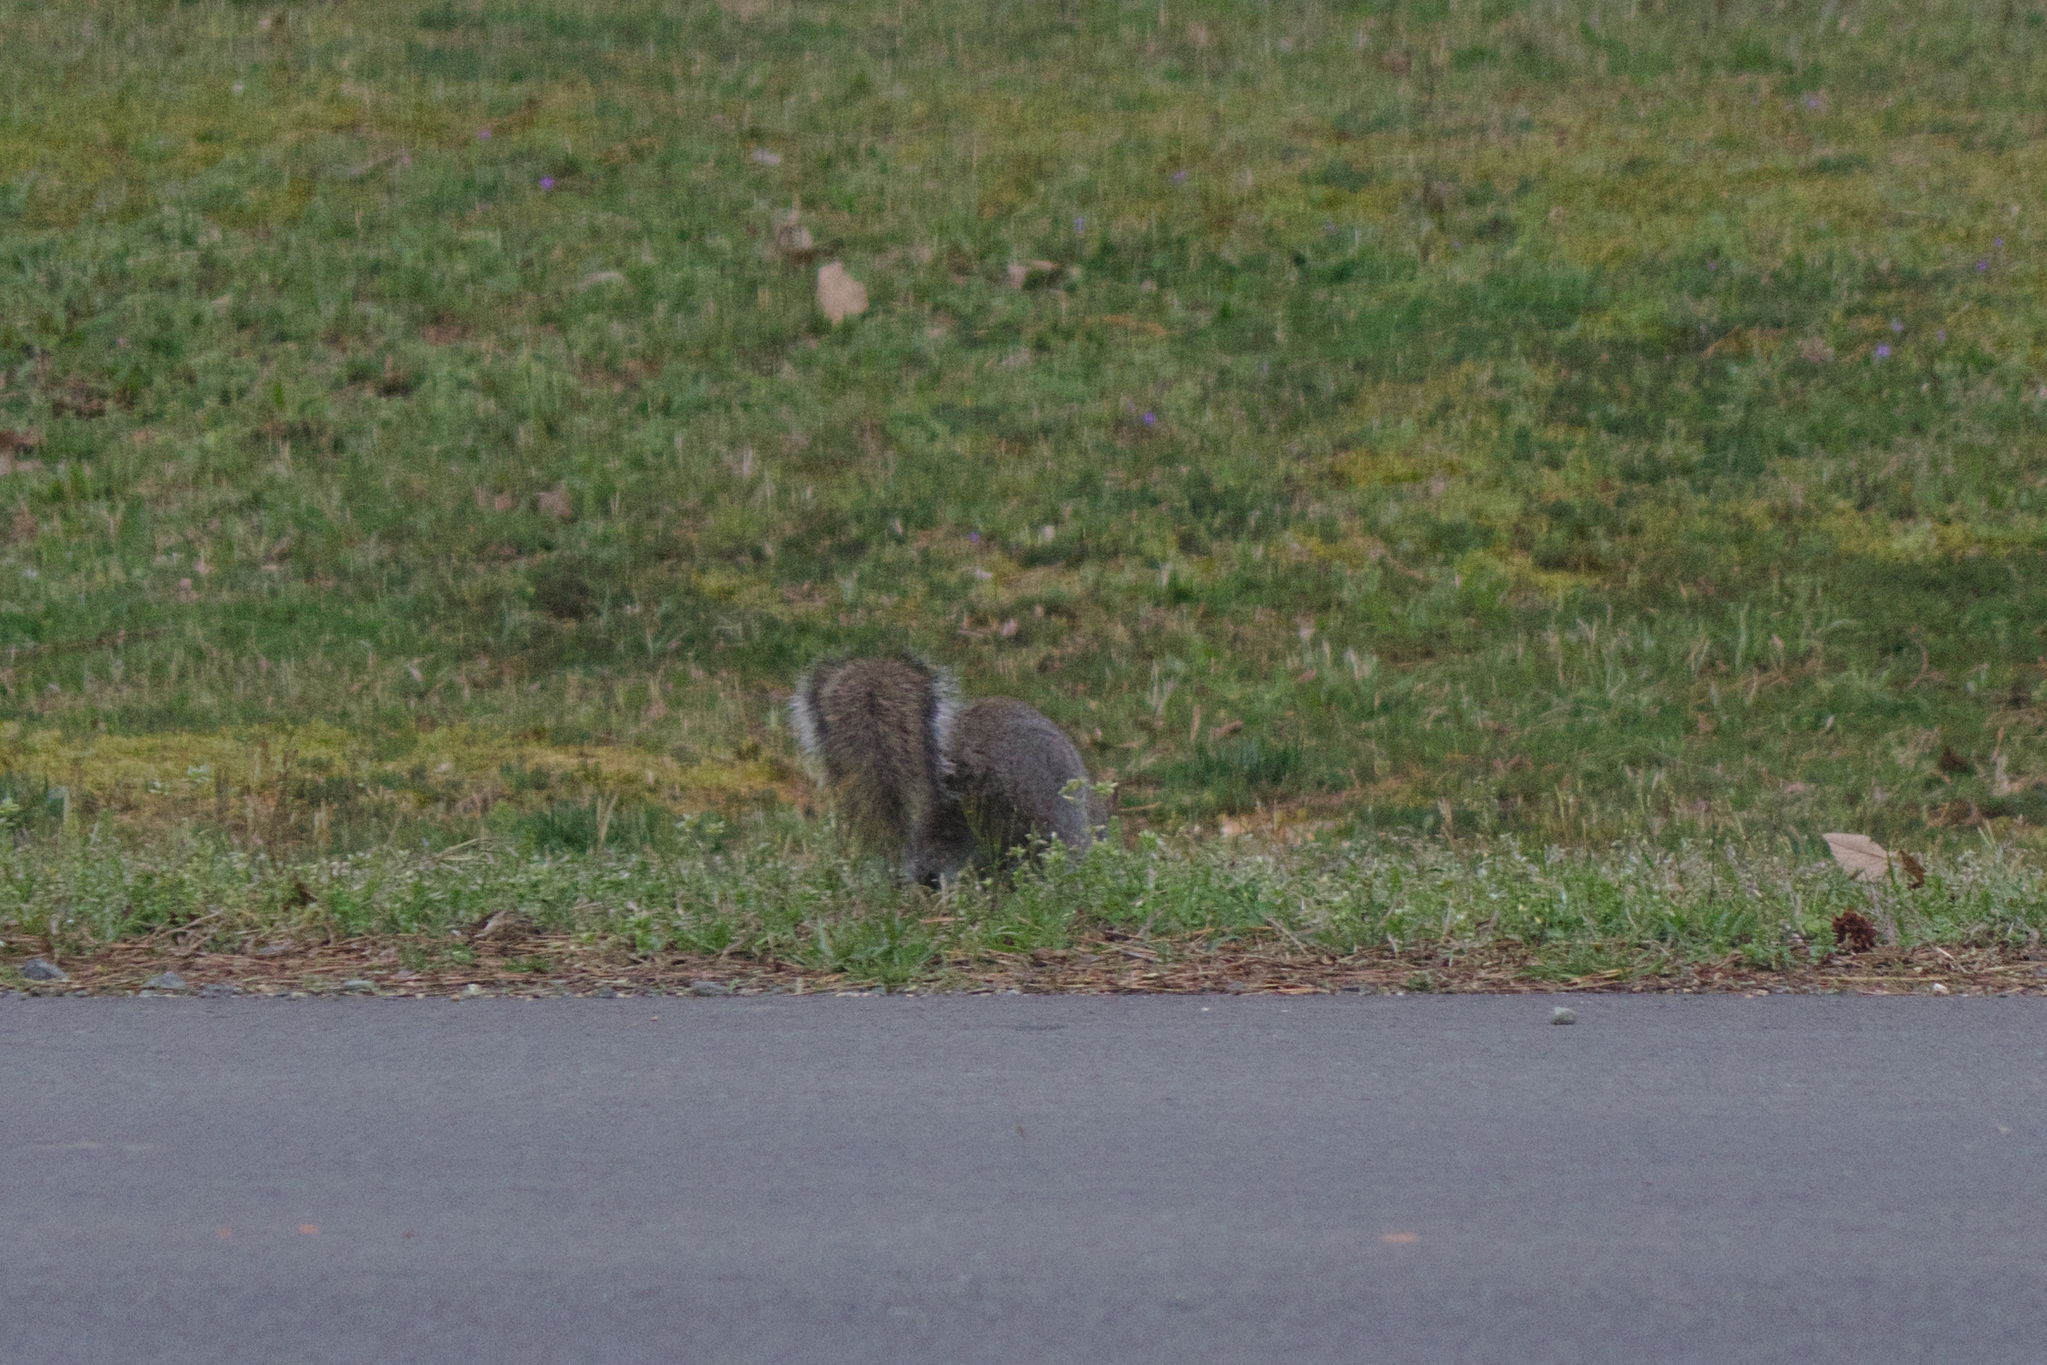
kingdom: Animalia
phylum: Chordata
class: Mammalia
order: Rodentia
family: Sciuridae
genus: Sciurus
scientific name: Sciurus carolinensis
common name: Eastern gray squirrel
